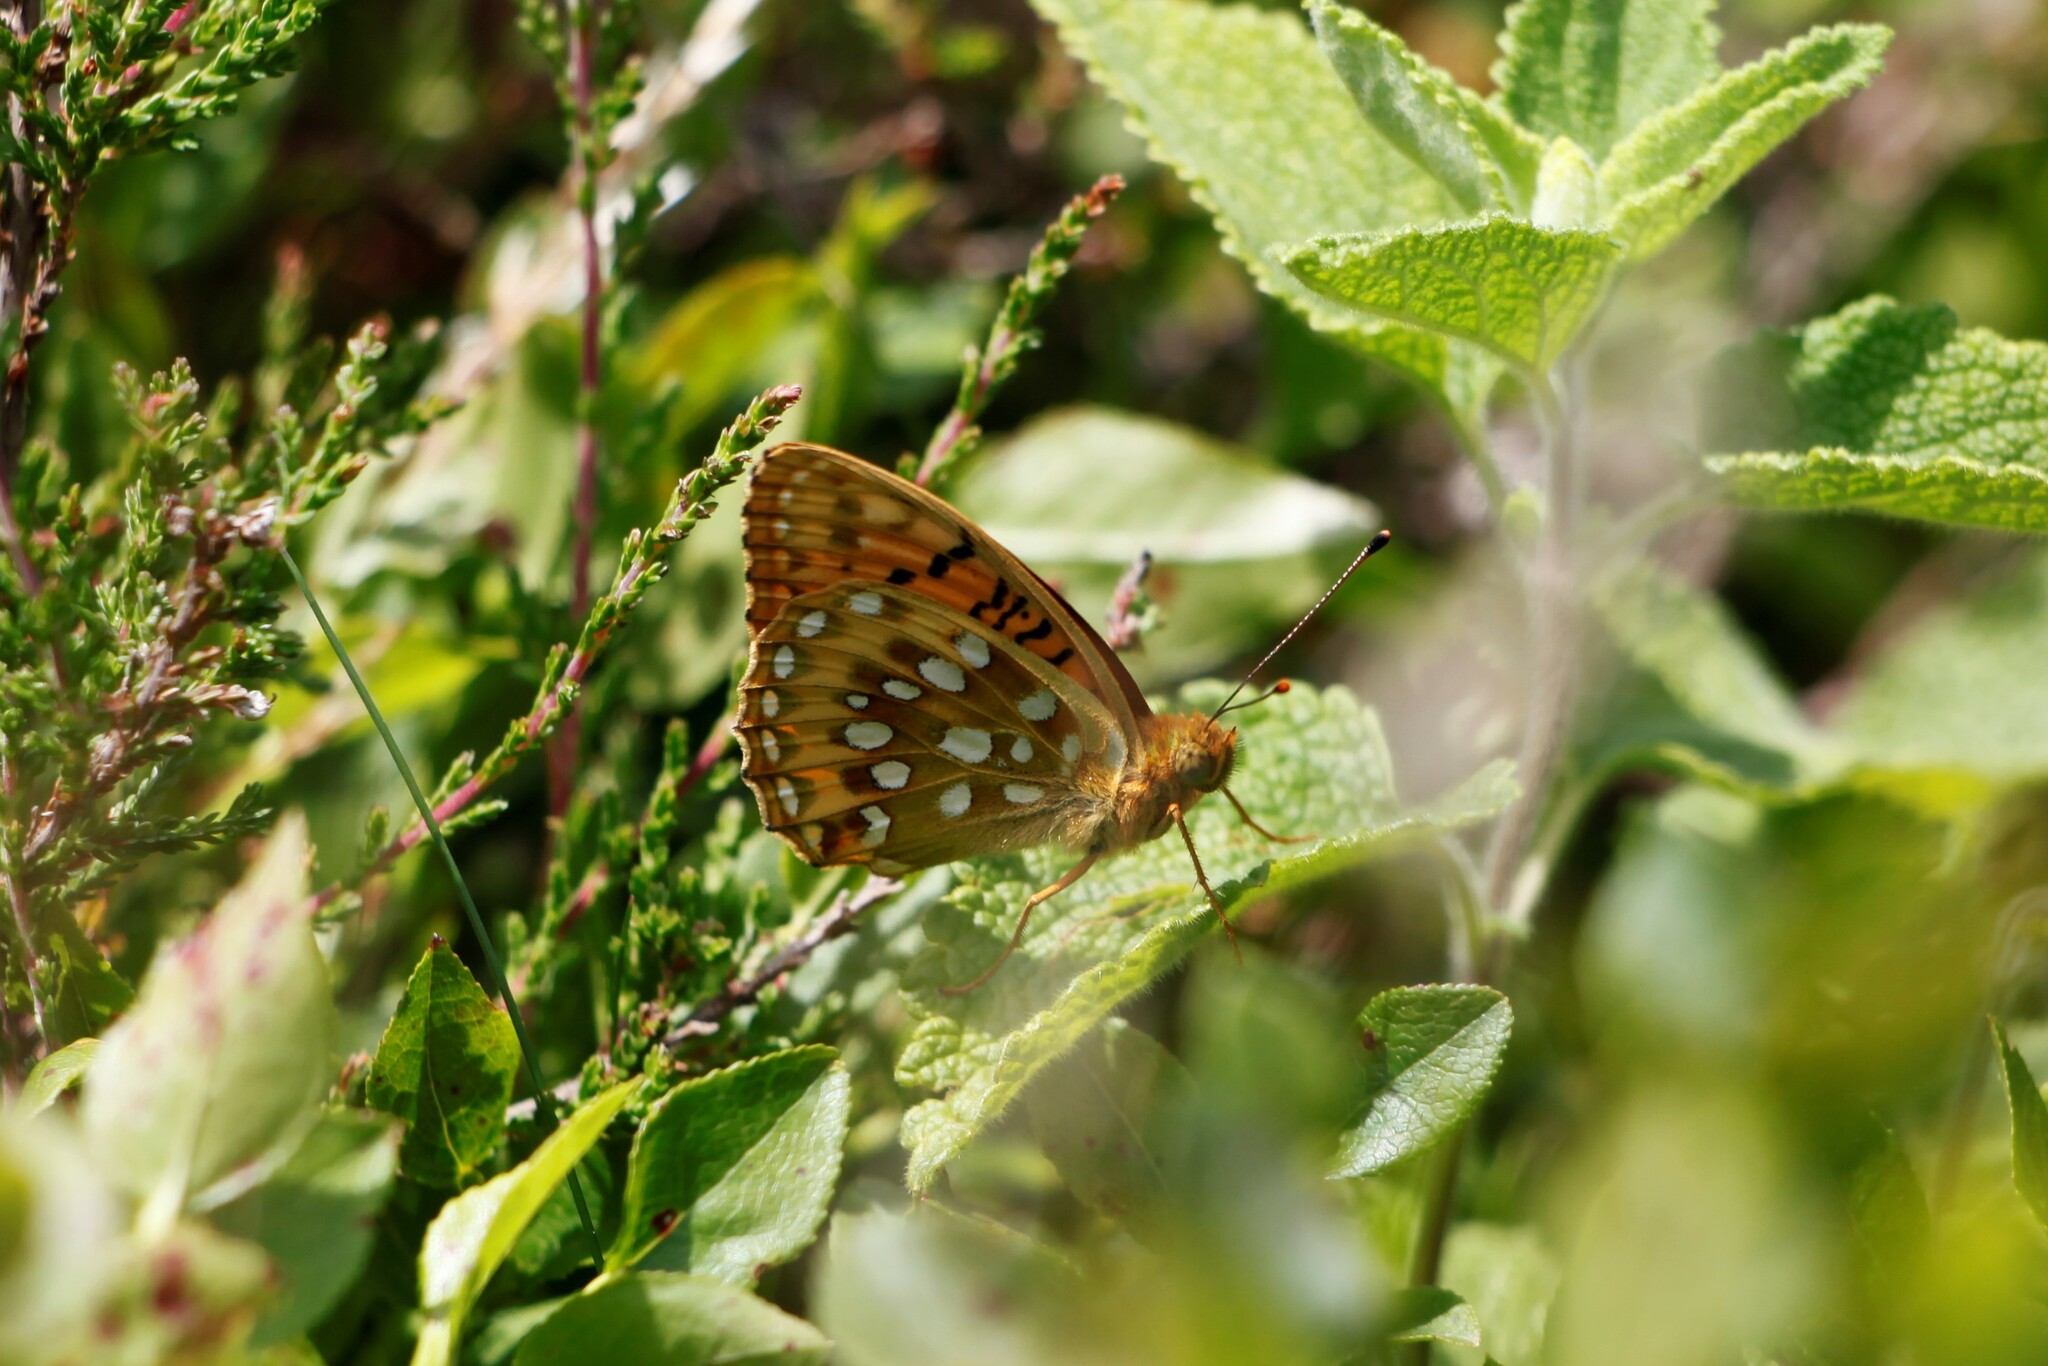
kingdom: Animalia
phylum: Arthropoda
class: Insecta
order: Lepidoptera
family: Nymphalidae
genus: Speyeria
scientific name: Speyeria aglaja
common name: Dark green fritillary
